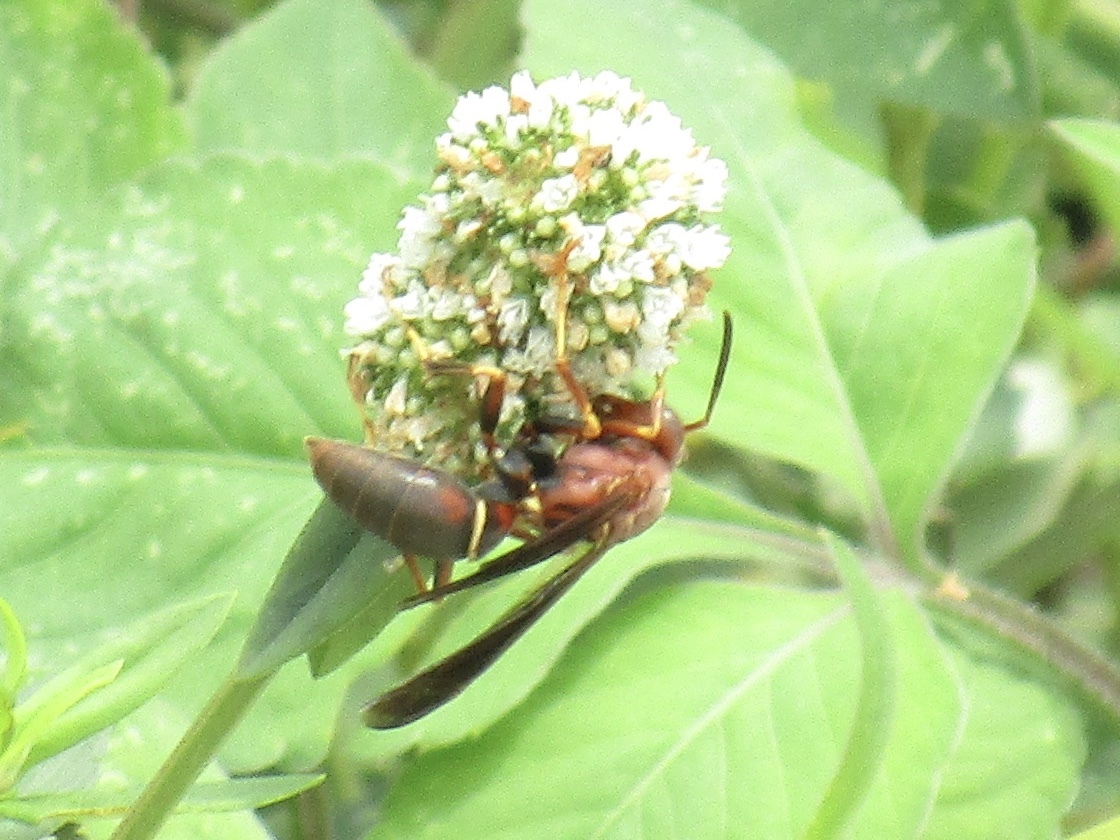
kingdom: Animalia
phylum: Arthropoda
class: Insecta
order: Hymenoptera
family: Eumenidae
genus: Polistes
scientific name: Polistes metricus
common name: Metric paper wasp
